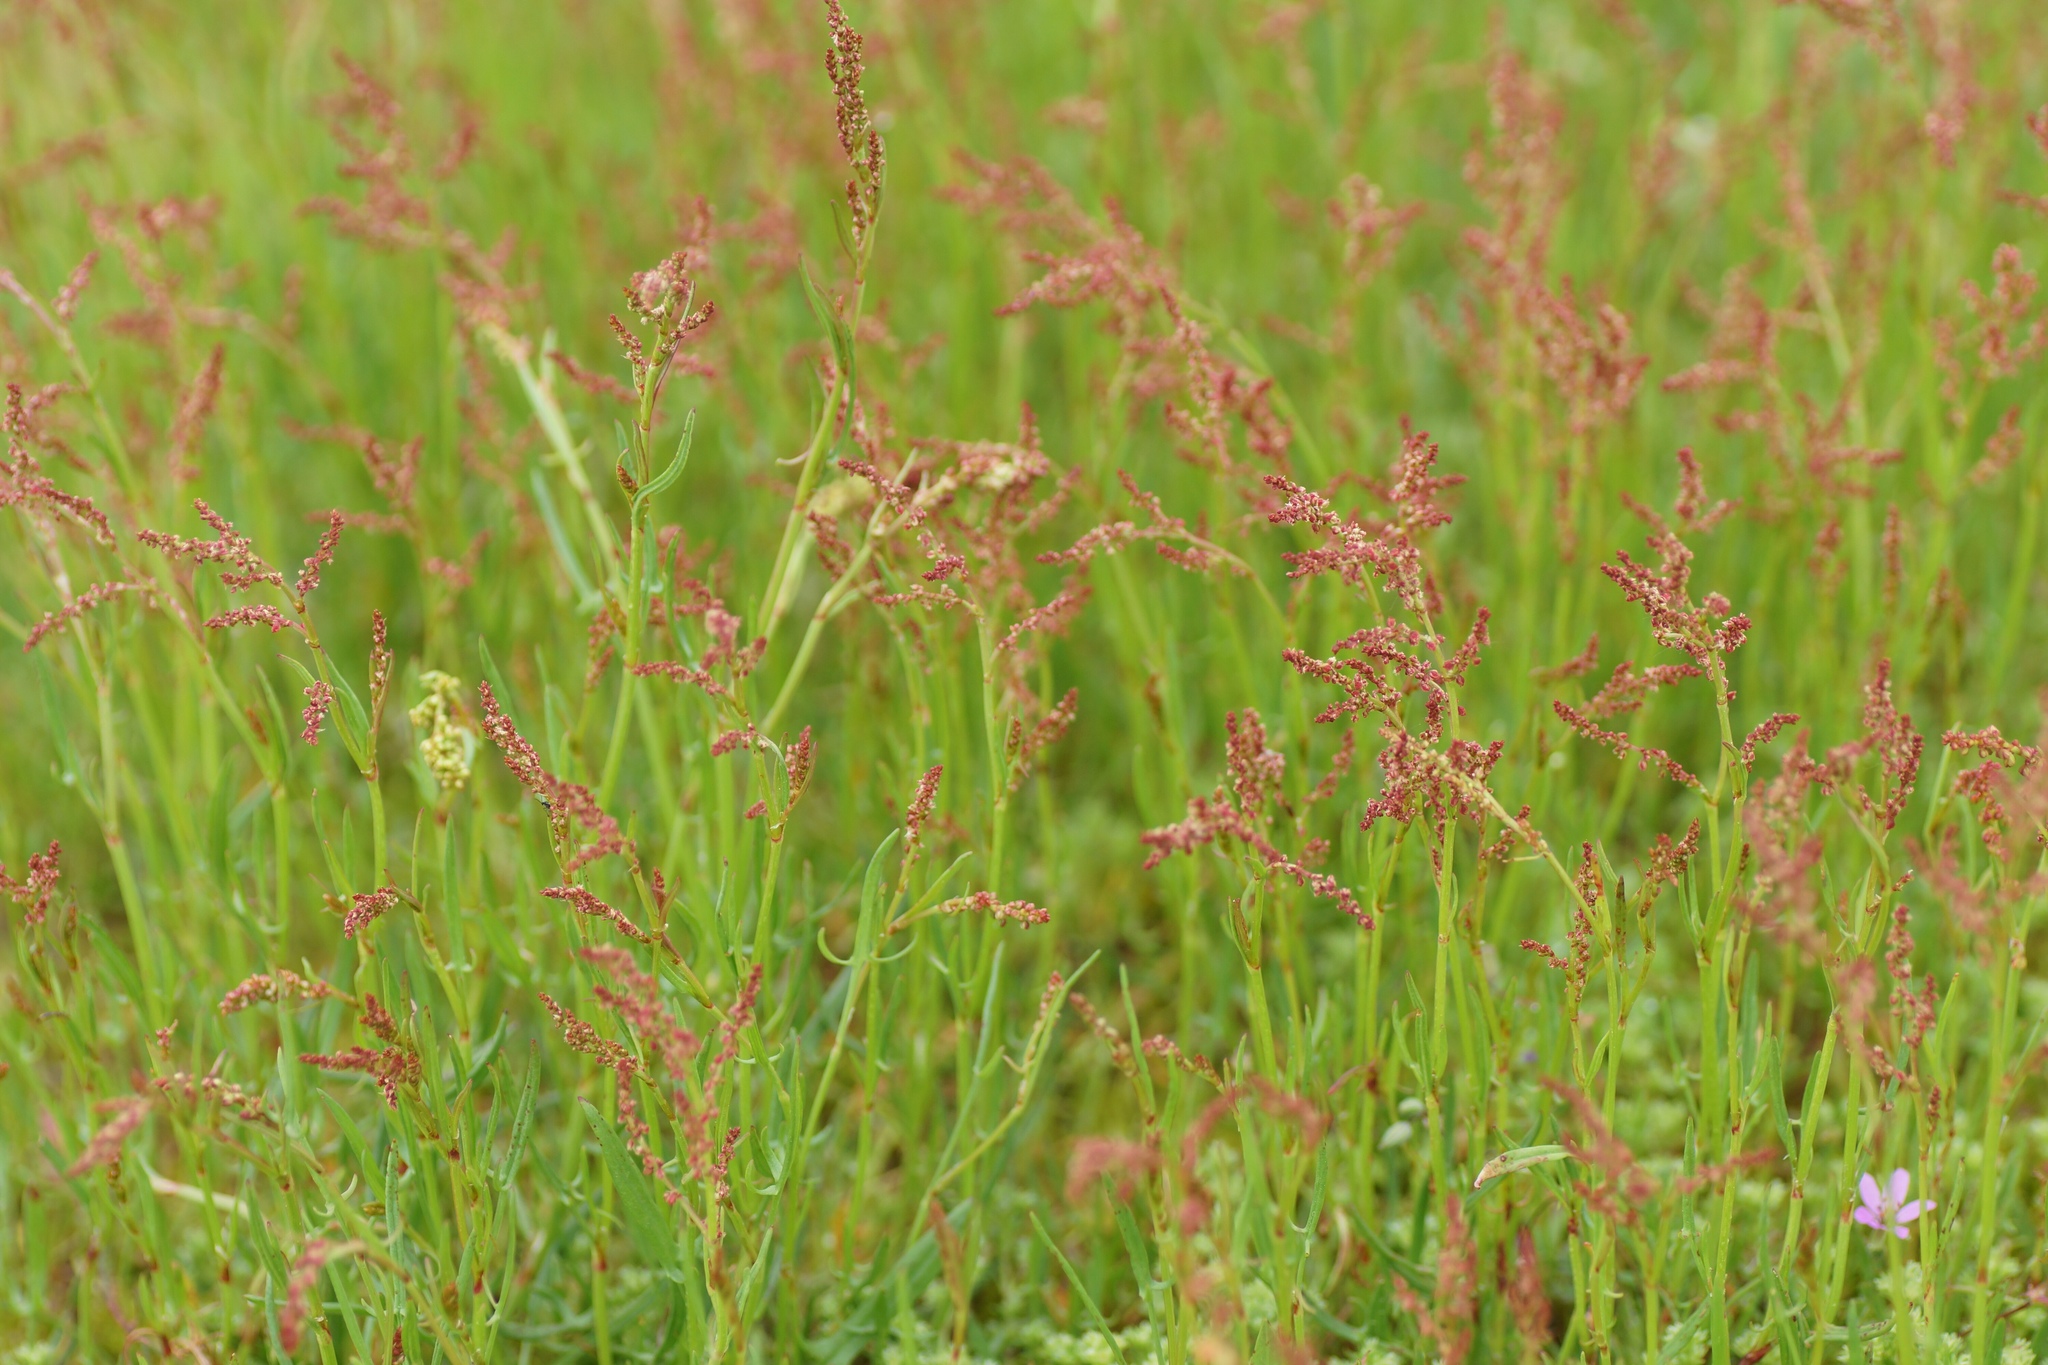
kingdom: Plantae
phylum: Tracheophyta
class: Magnoliopsida
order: Caryophyllales
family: Polygonaceae
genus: Rumex
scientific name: Rumex acetosella
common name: Common sheep sorrel
